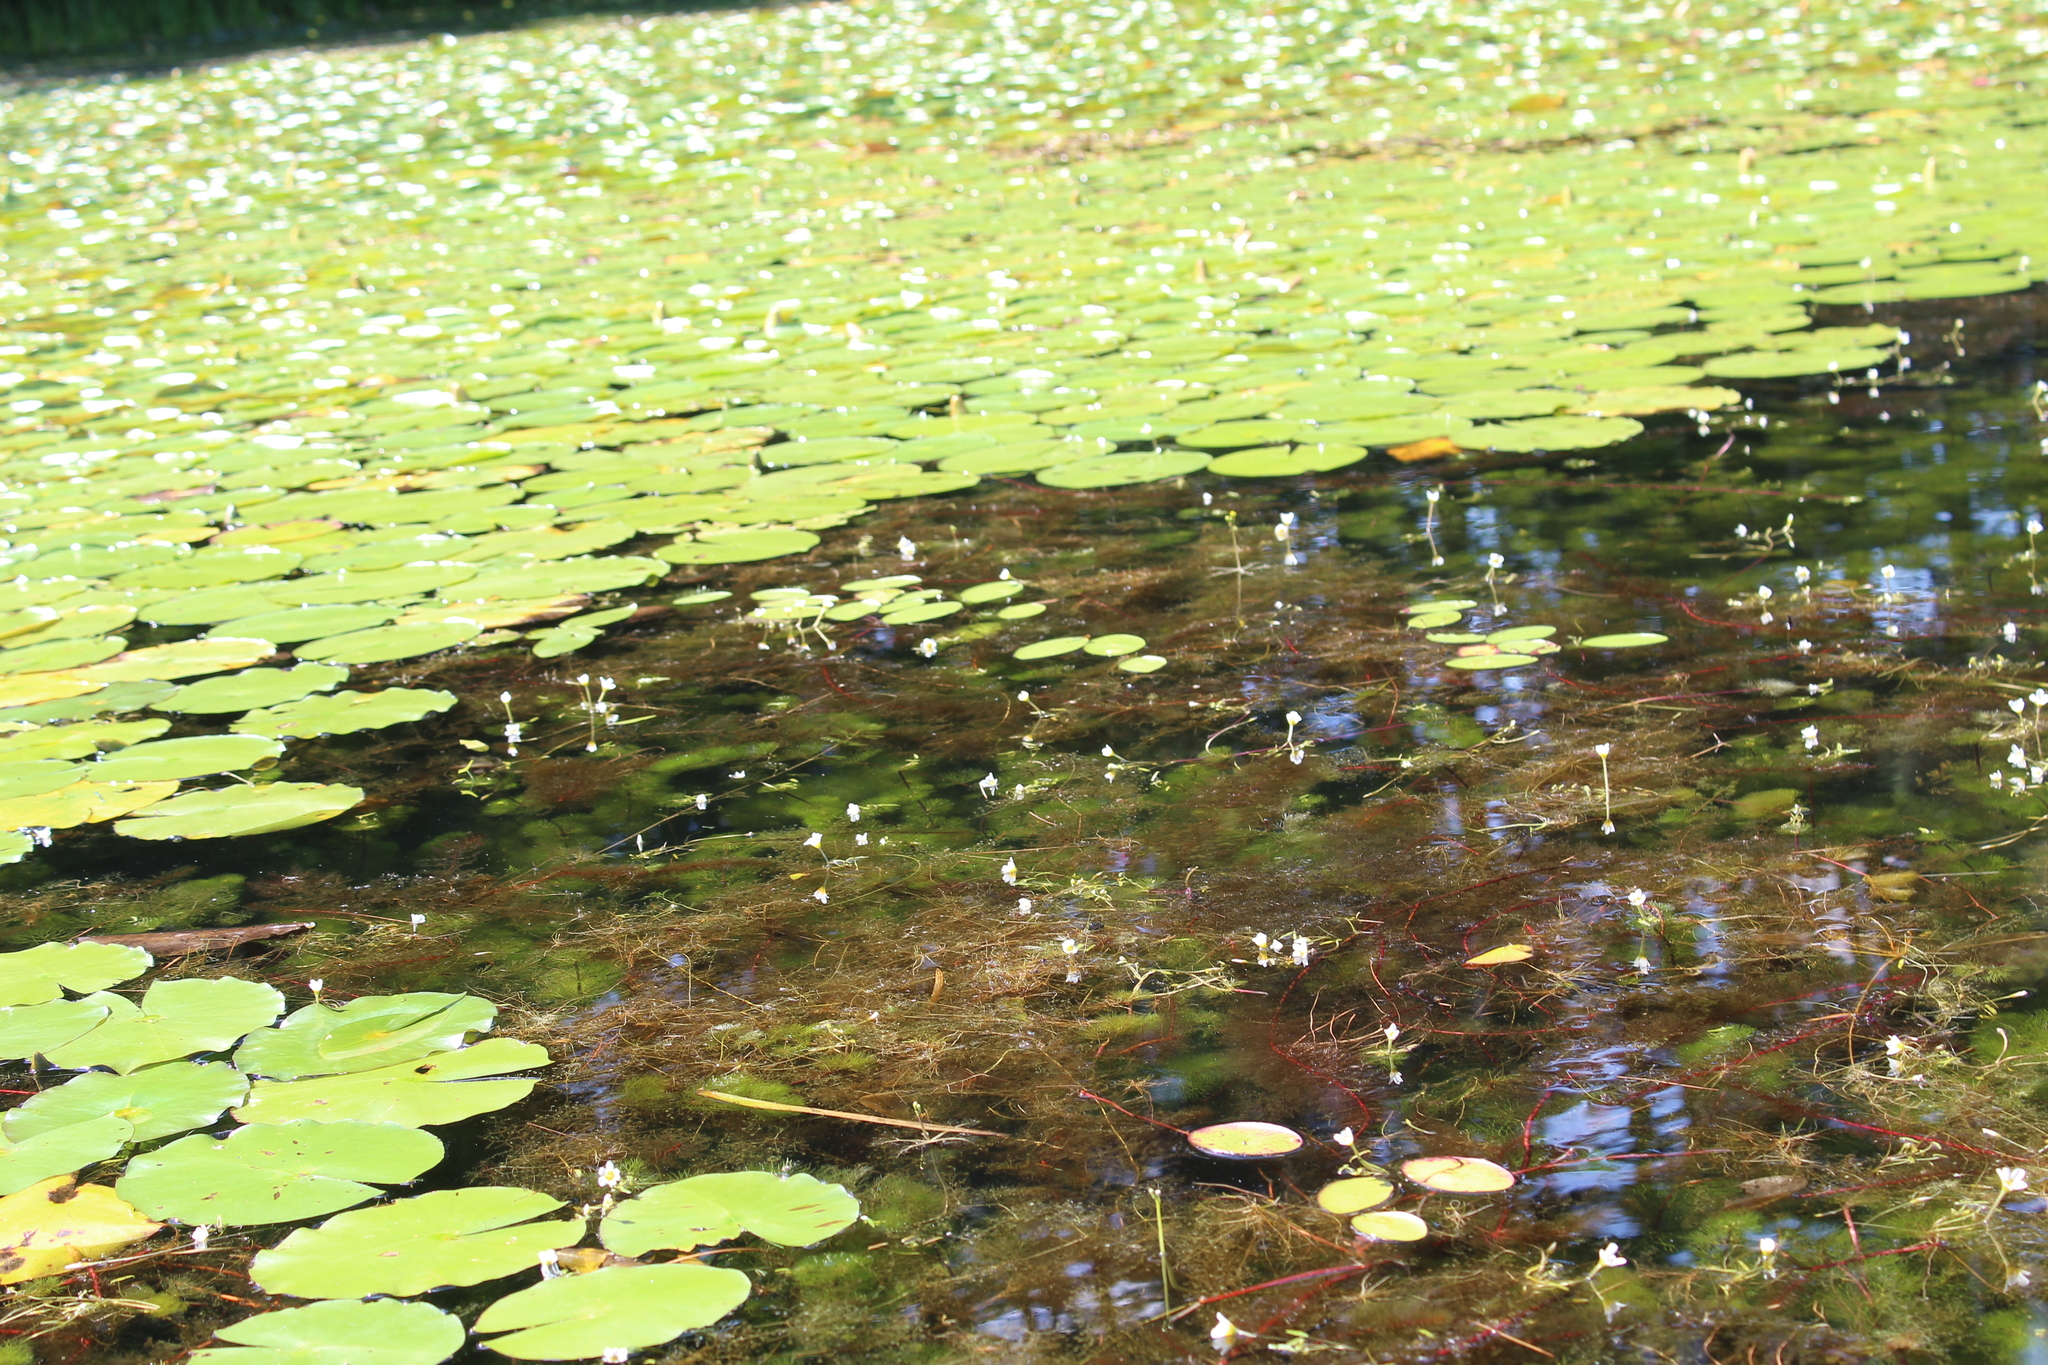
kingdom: Plantae
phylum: Tracheophyta
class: Magnoliopsida
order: Nymphaeales
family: Cabombaceae
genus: Cabomba
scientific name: Cabomba caroliniana
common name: Fanwort
